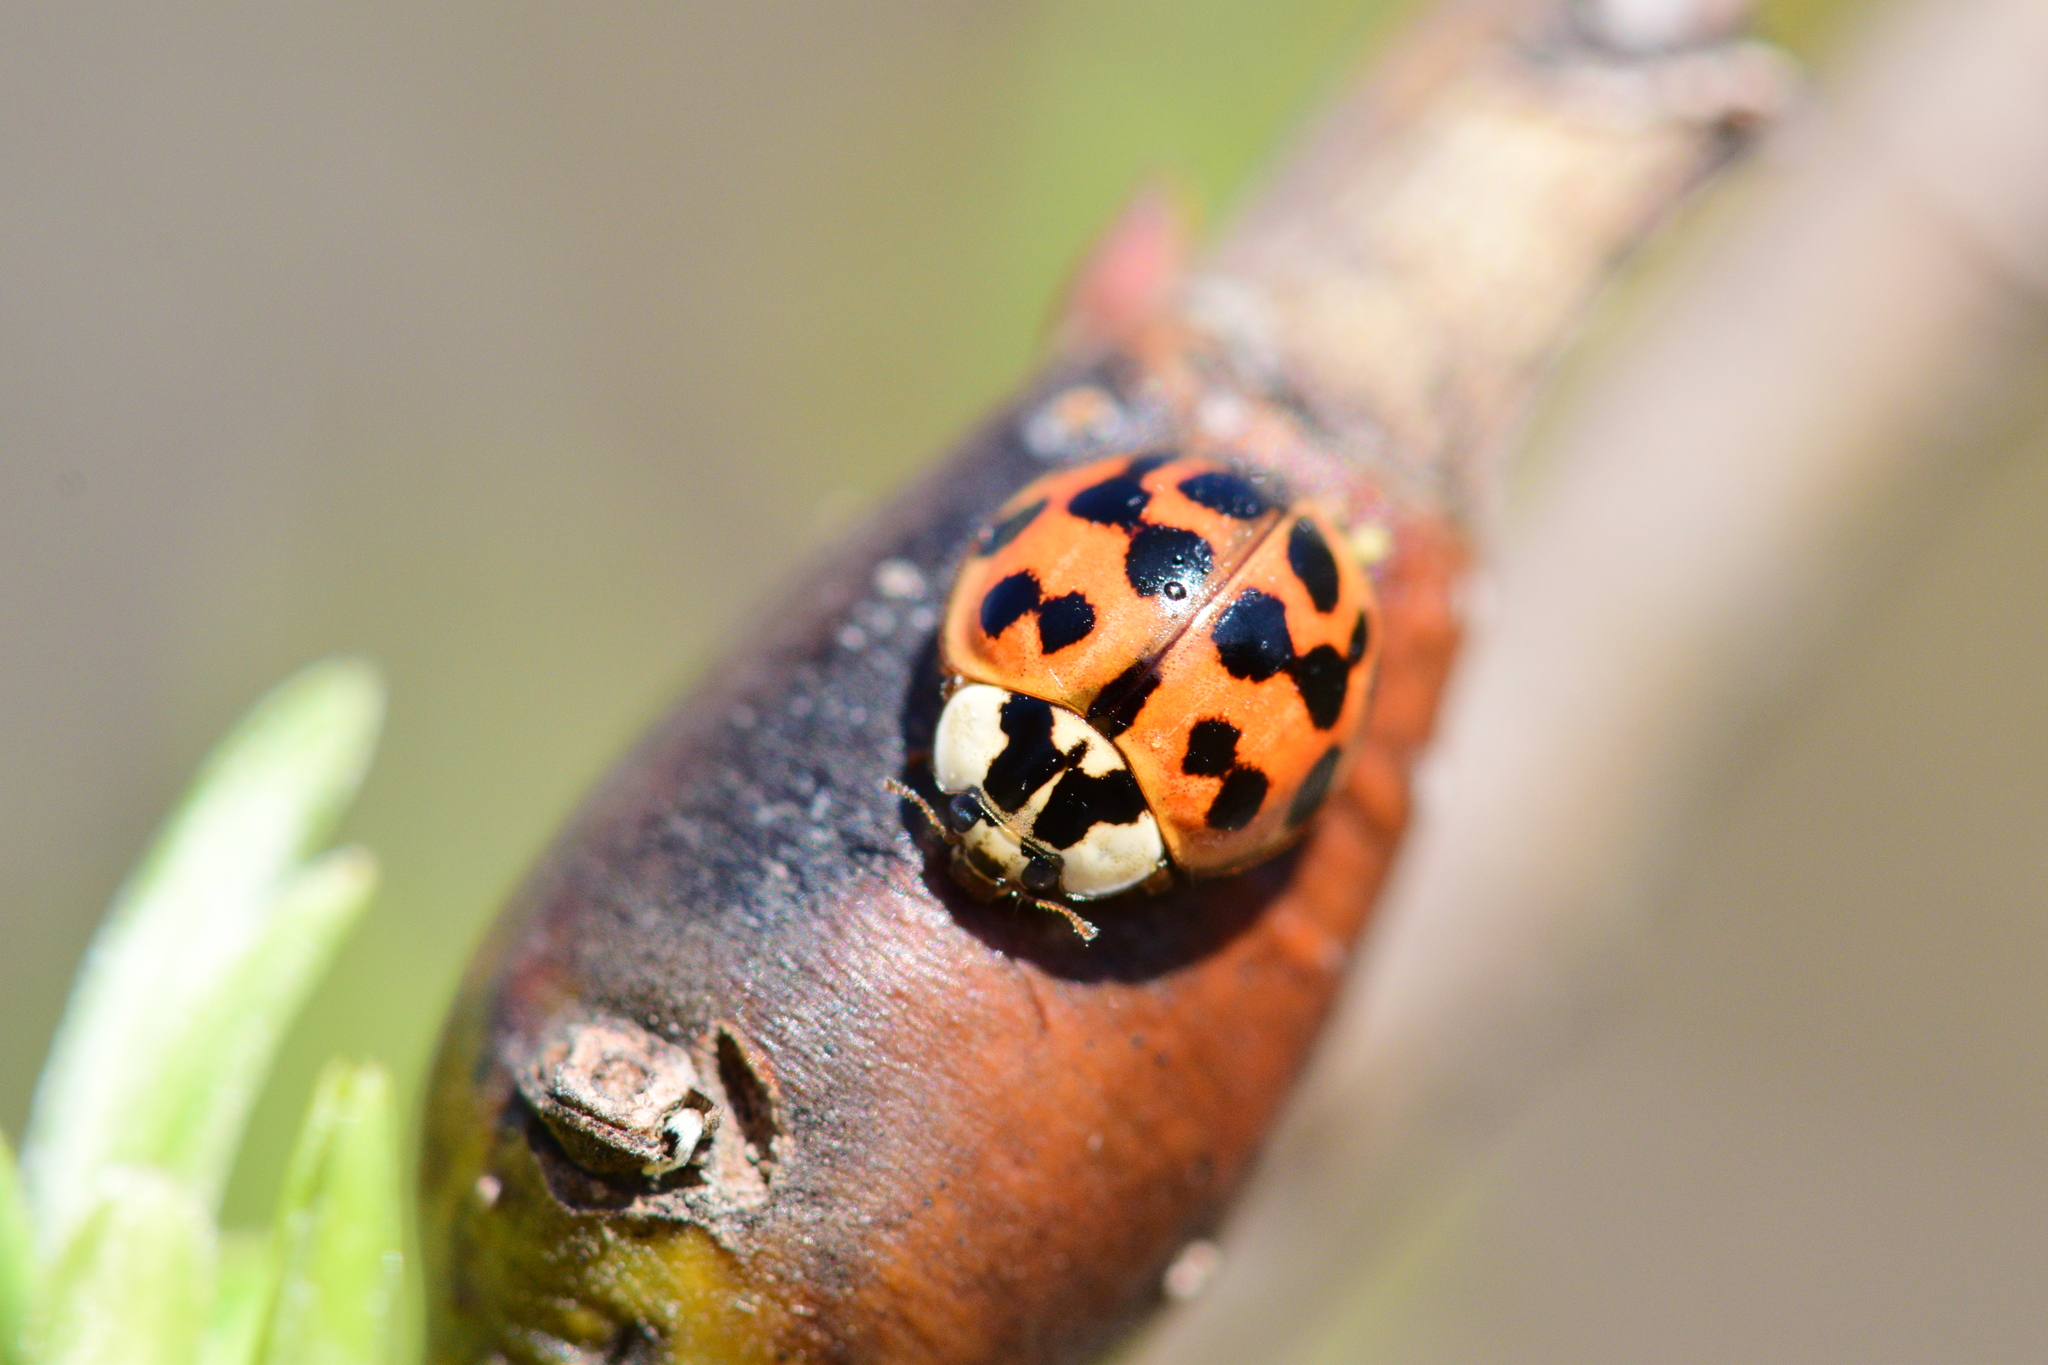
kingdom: Animalia
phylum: Arthropoda
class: Insecta
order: Coleoptera
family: Coccinellidae
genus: Harmonia
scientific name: Harmonia axyridis
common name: Harlequin ladybird
